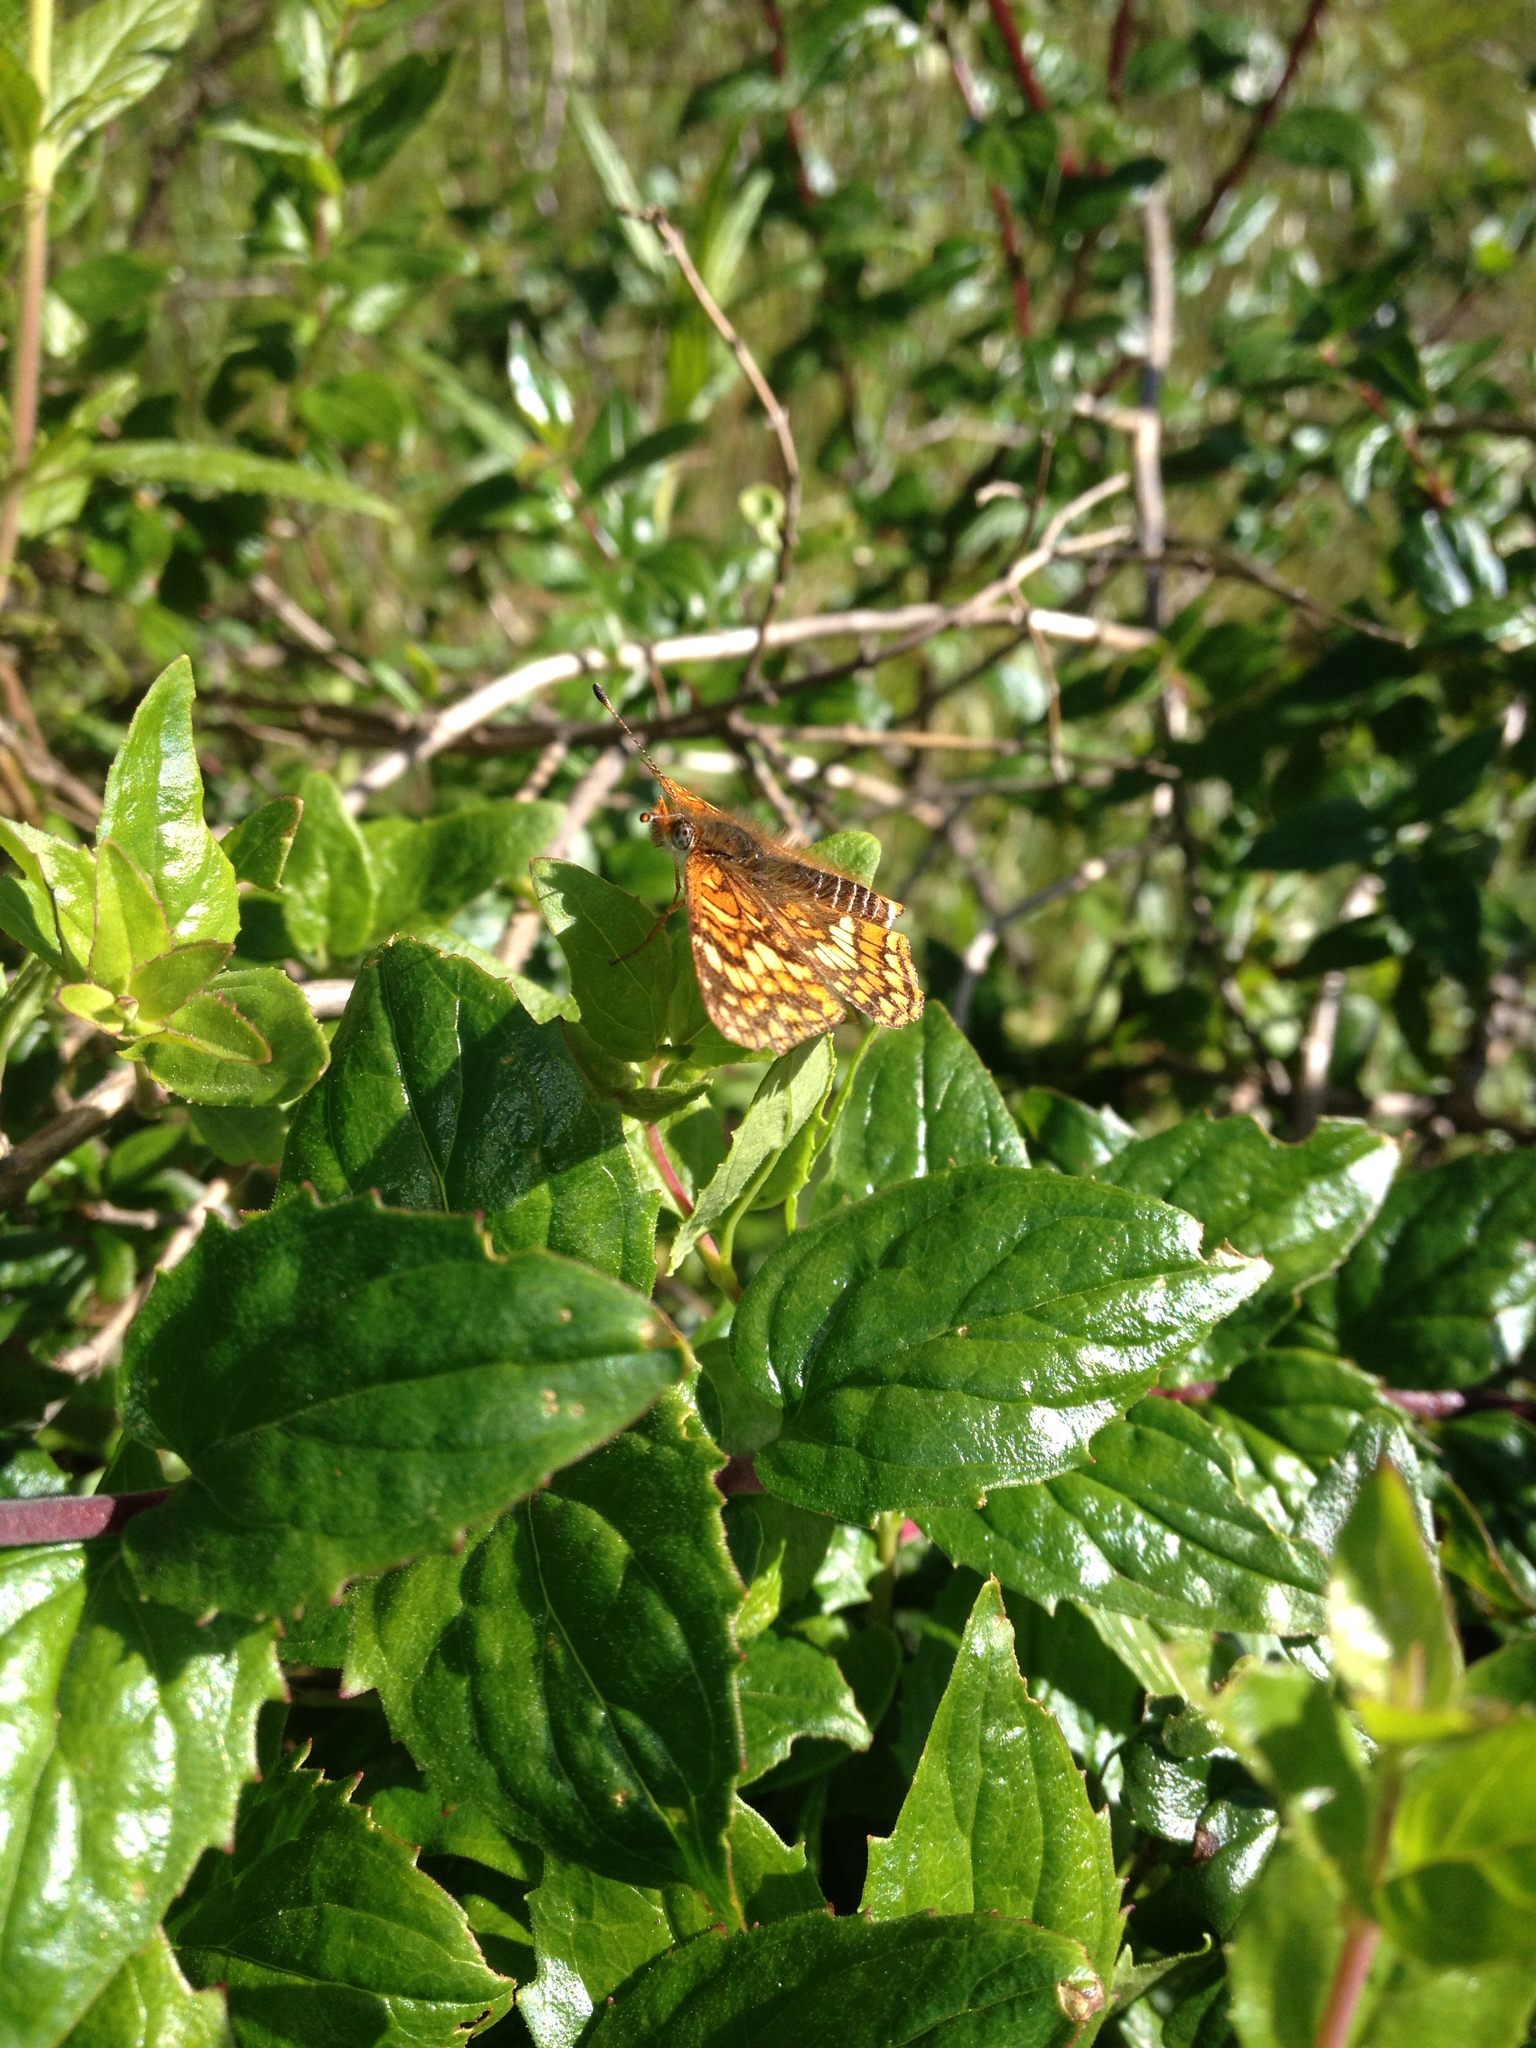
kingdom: Animalia
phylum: Arthropoda
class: Insecta
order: Lepidoptera
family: Nymphalidae
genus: Chlosyne
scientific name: Chlosyne gabbii
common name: Gabb's checkerspot
